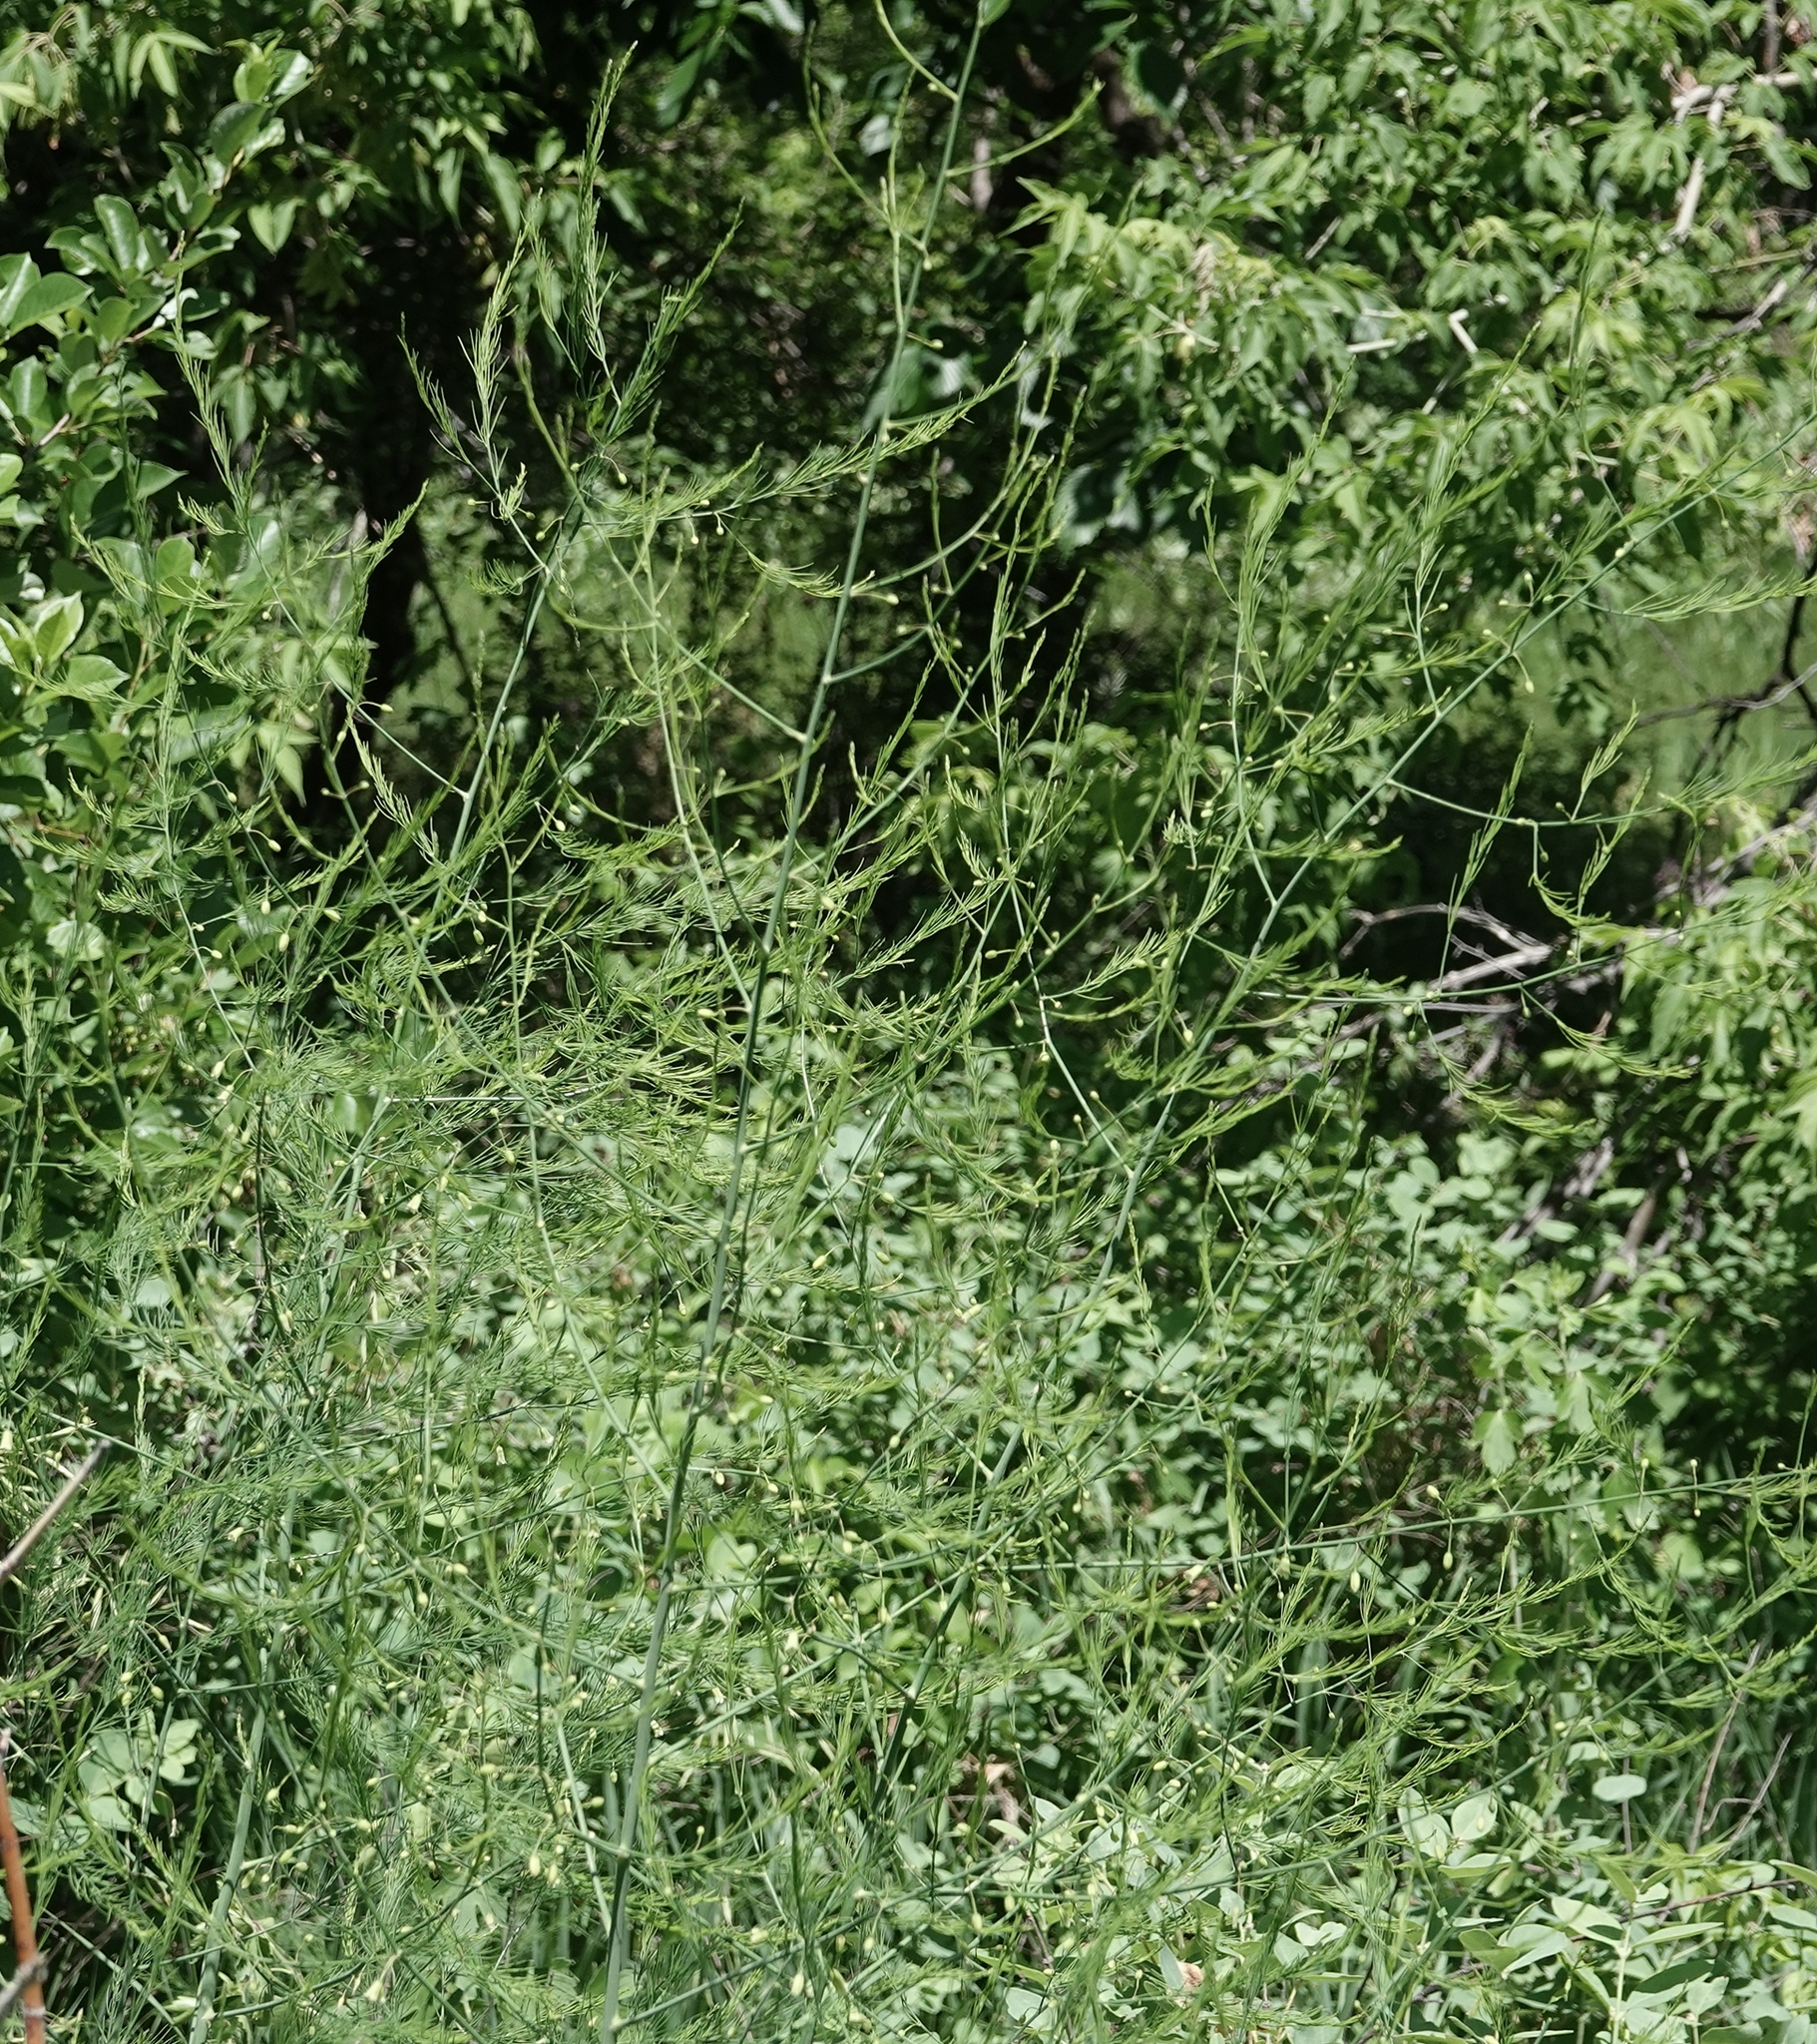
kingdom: Plantae
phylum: Tracheophyta
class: Liliopsida
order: Asparagales
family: Asparagaceae
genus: Asparagus
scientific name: Asparagus officinalis
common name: Garden asparagus
